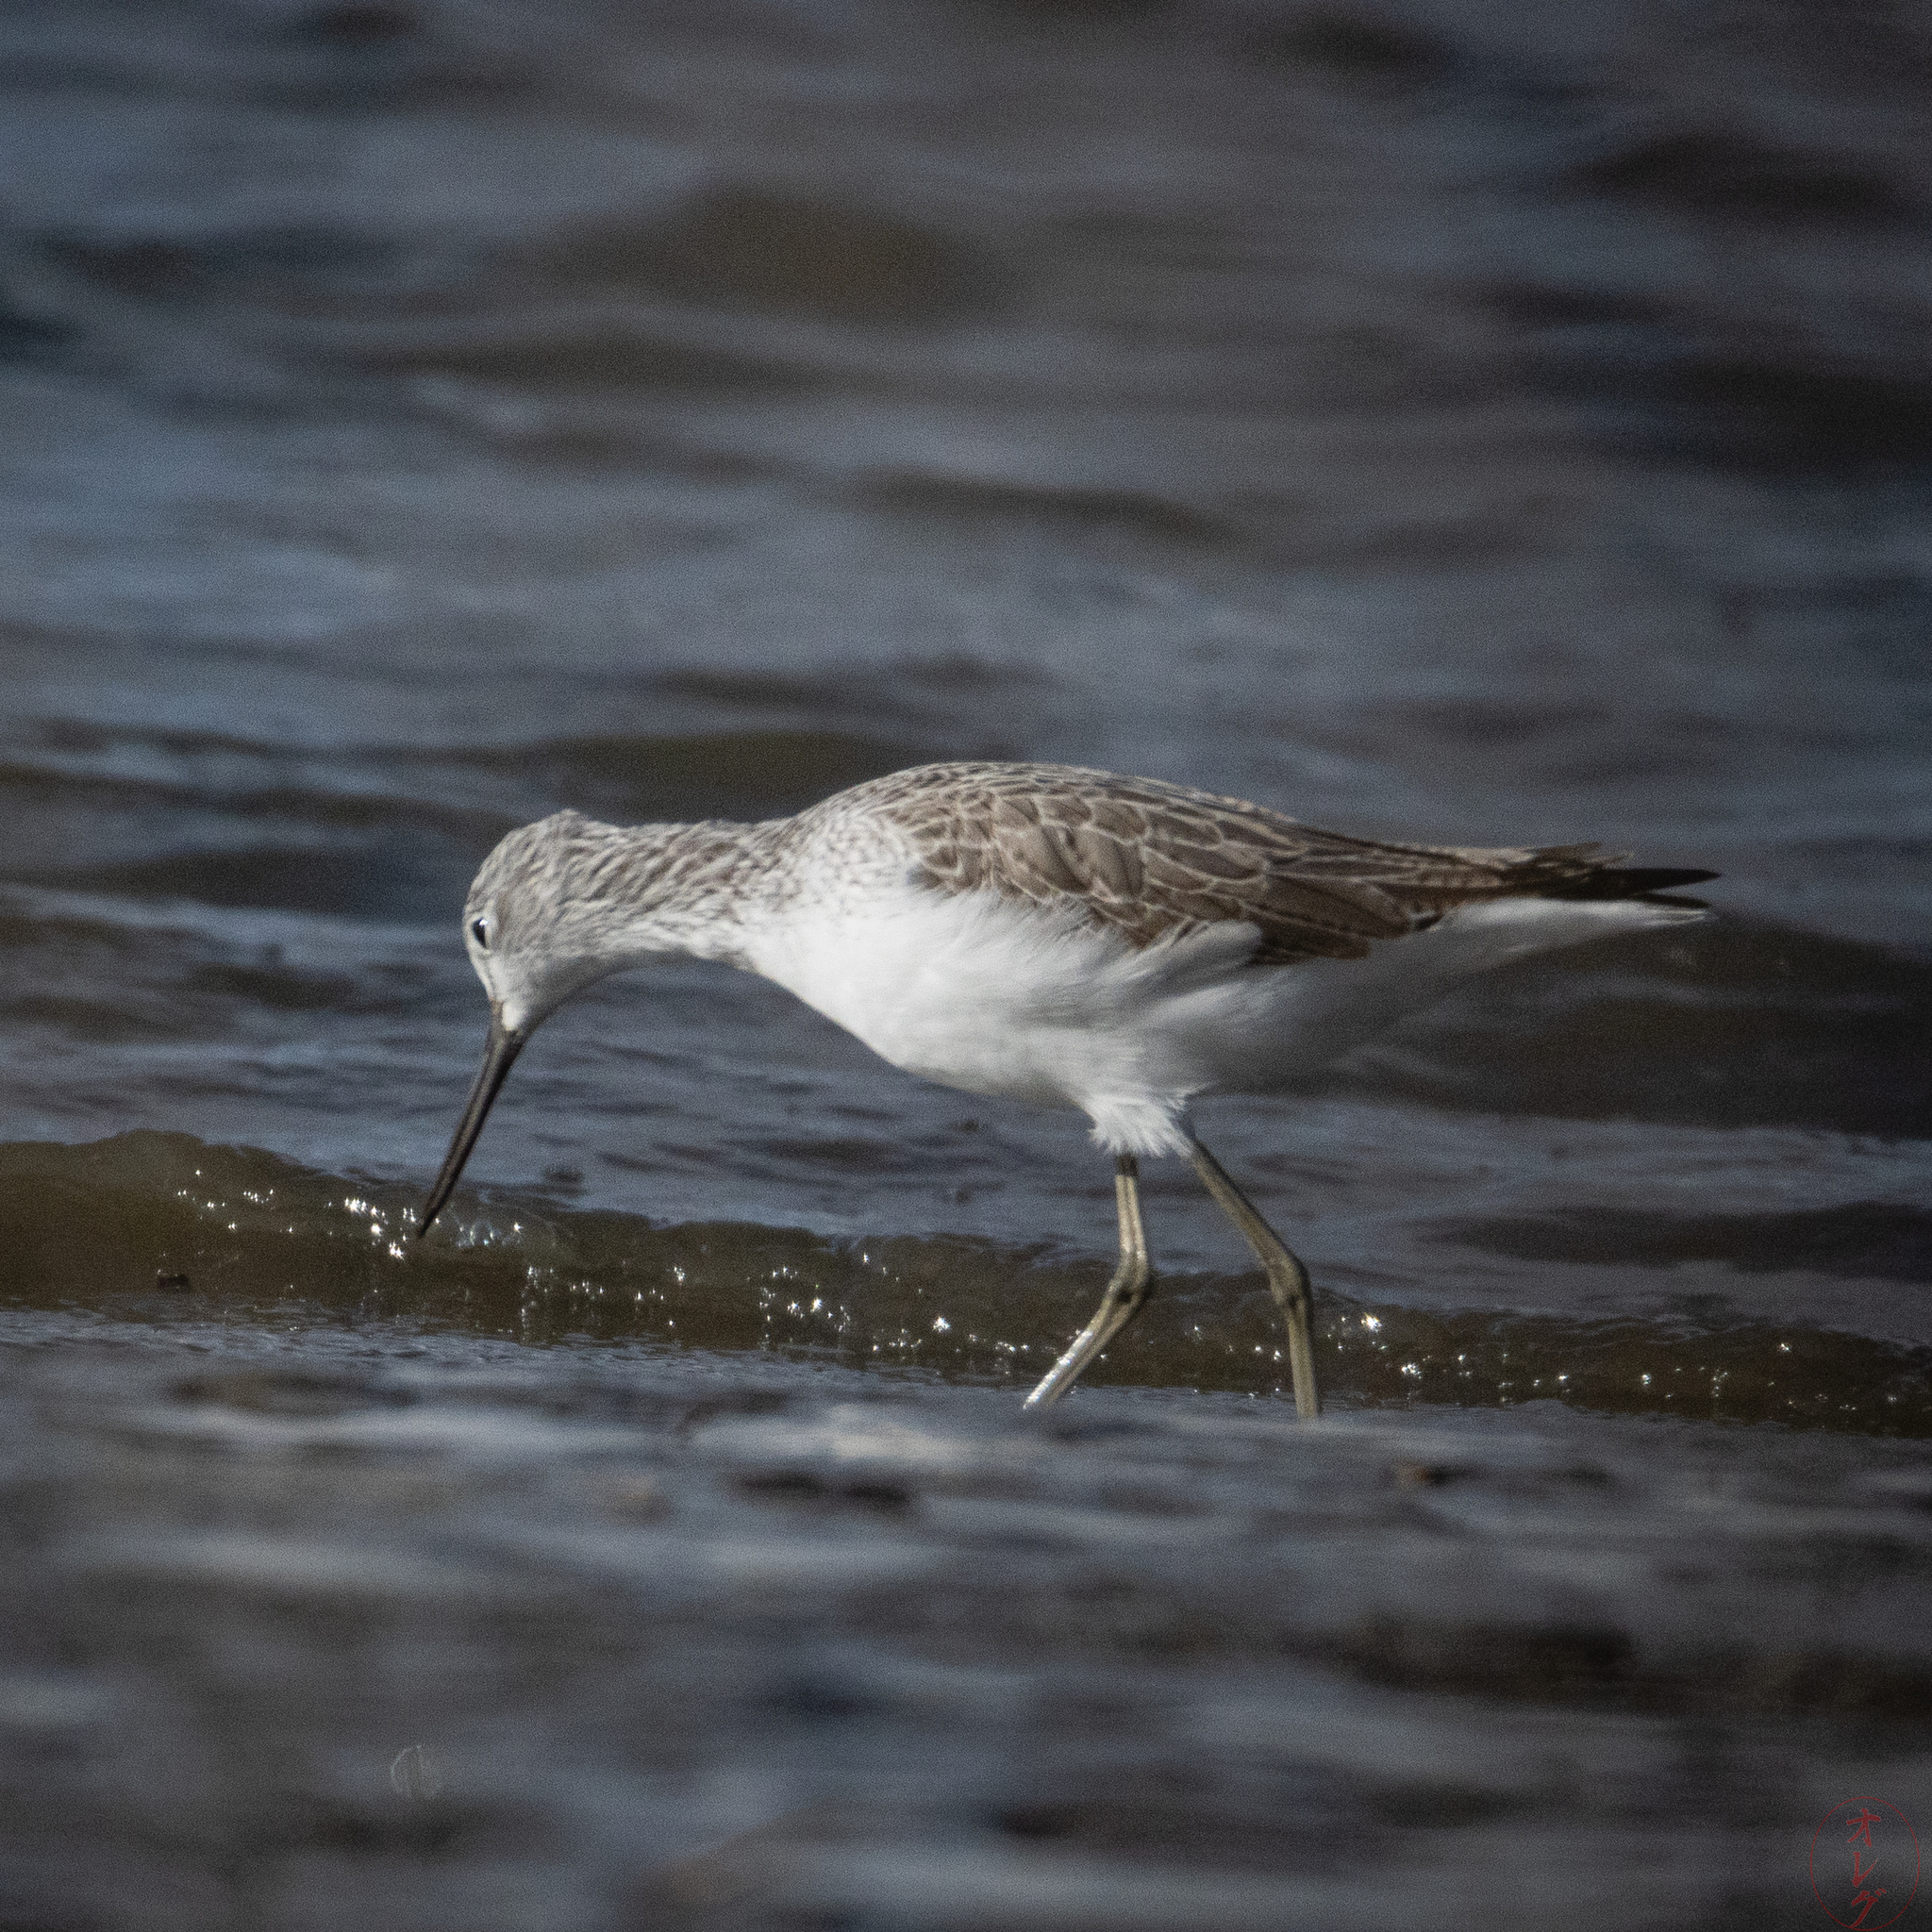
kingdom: Animalia
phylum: Chordata
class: Aves
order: Charadriiformes
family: Scolopacidae
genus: Tringa
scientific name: Tringa nebularia
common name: Common greenshank
